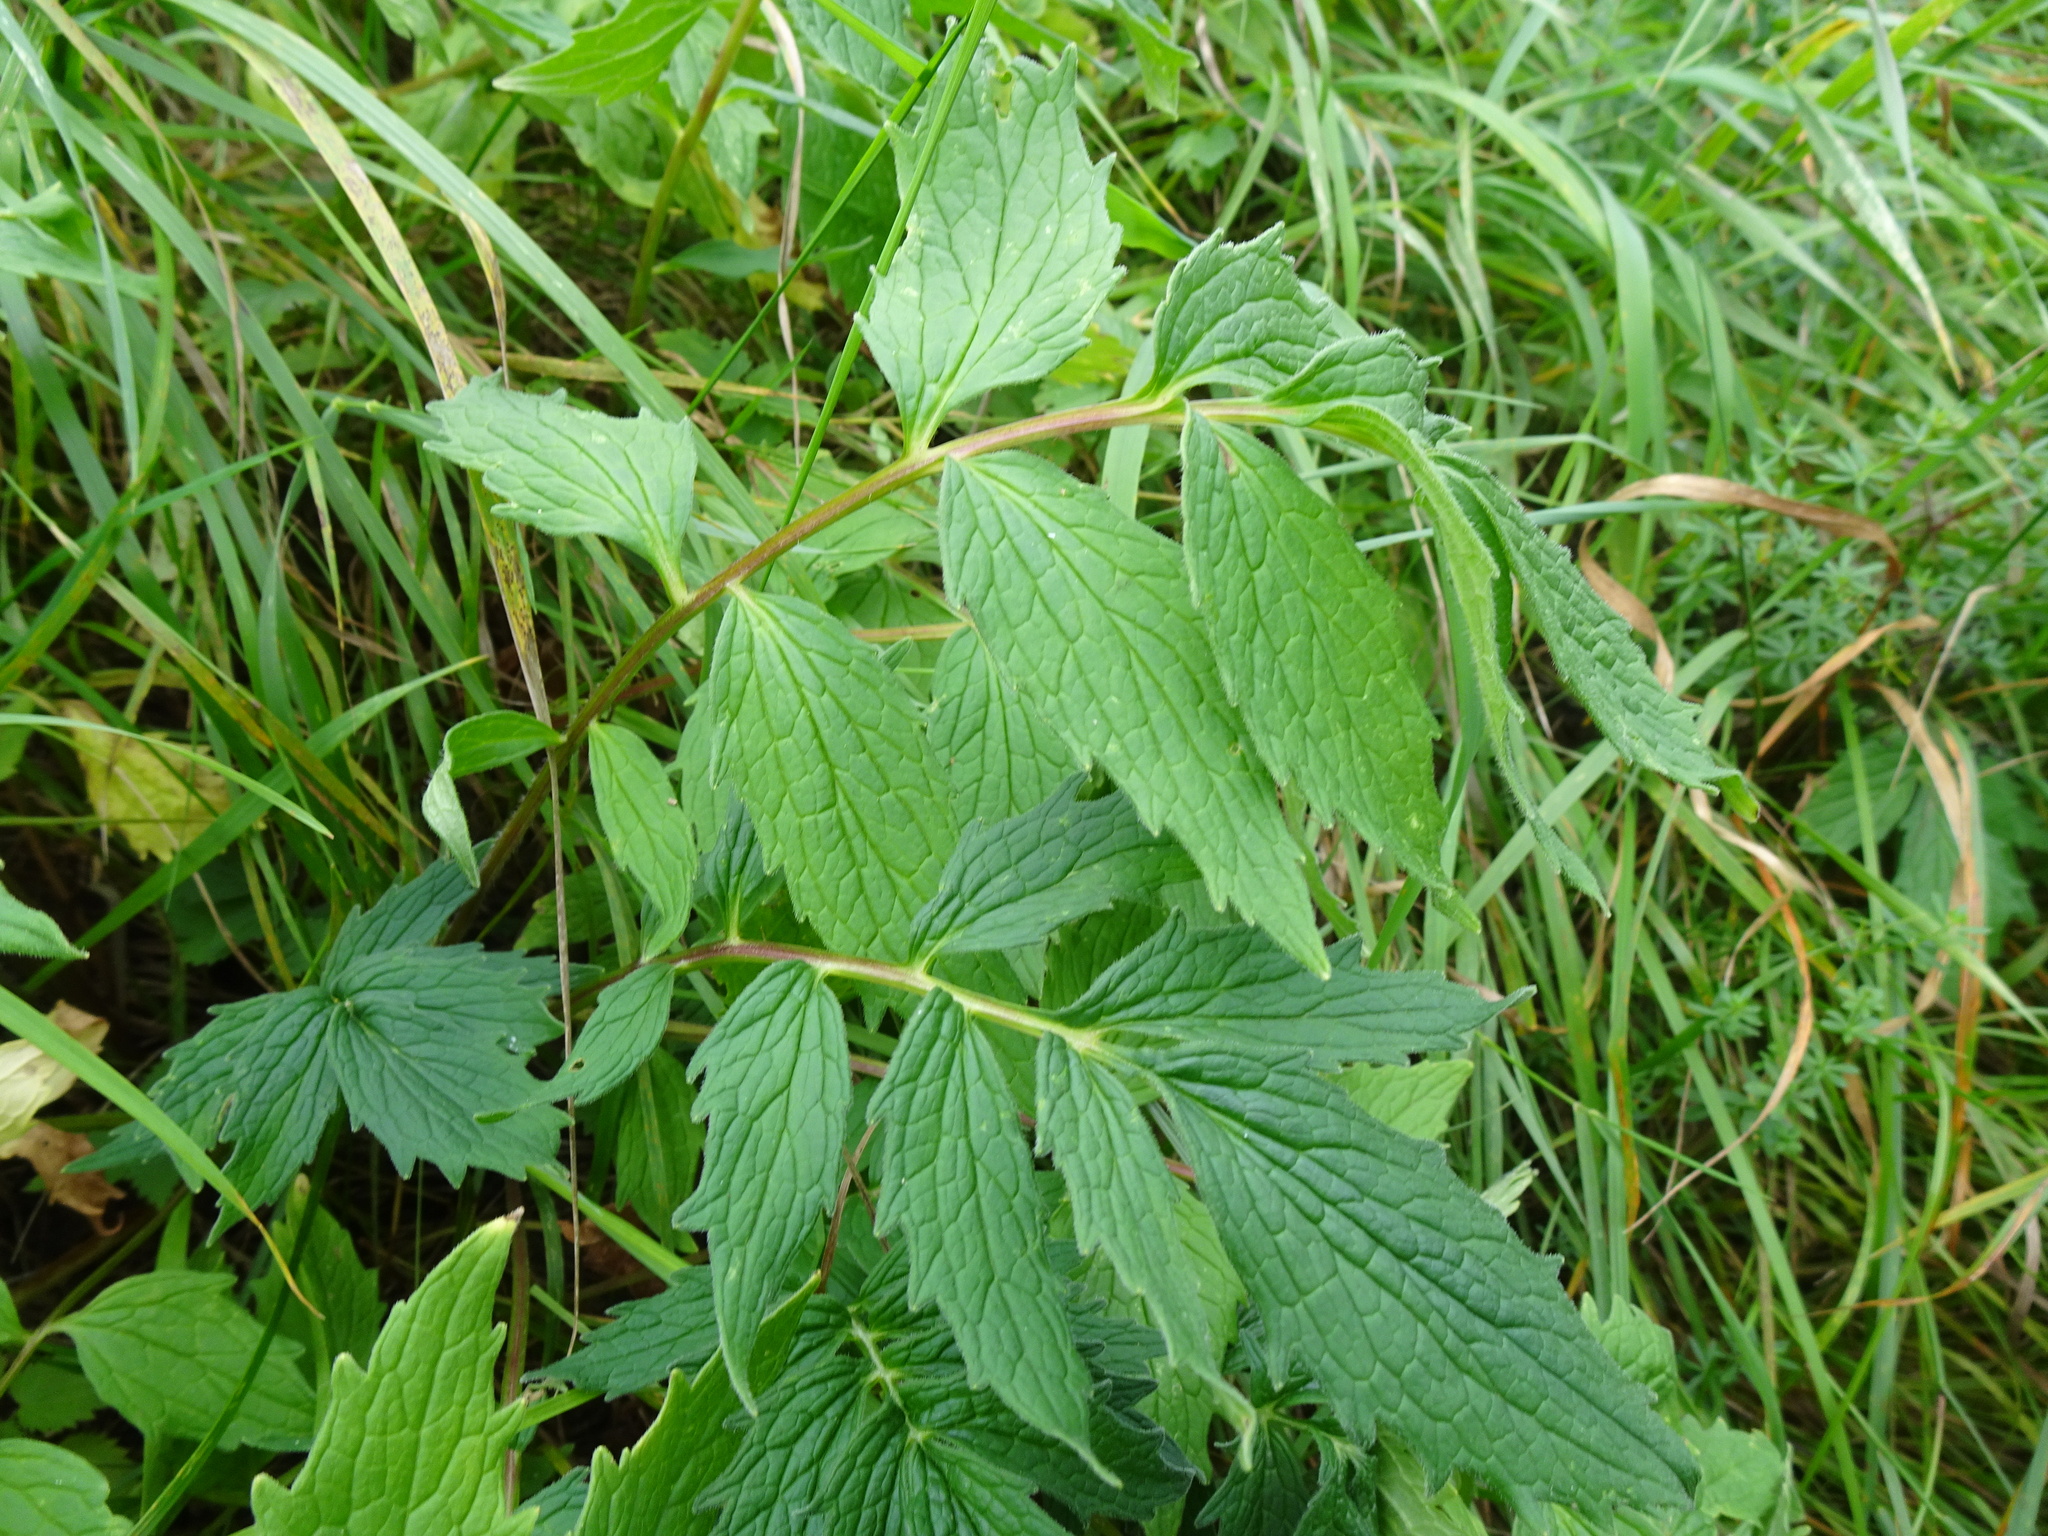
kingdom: Plantae
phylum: Tracheophyta
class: Magnoliopsida
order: Dipsacales
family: Caprifoliaceae
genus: Valeriana
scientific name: Valeriana officinalis
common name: Common valerian
